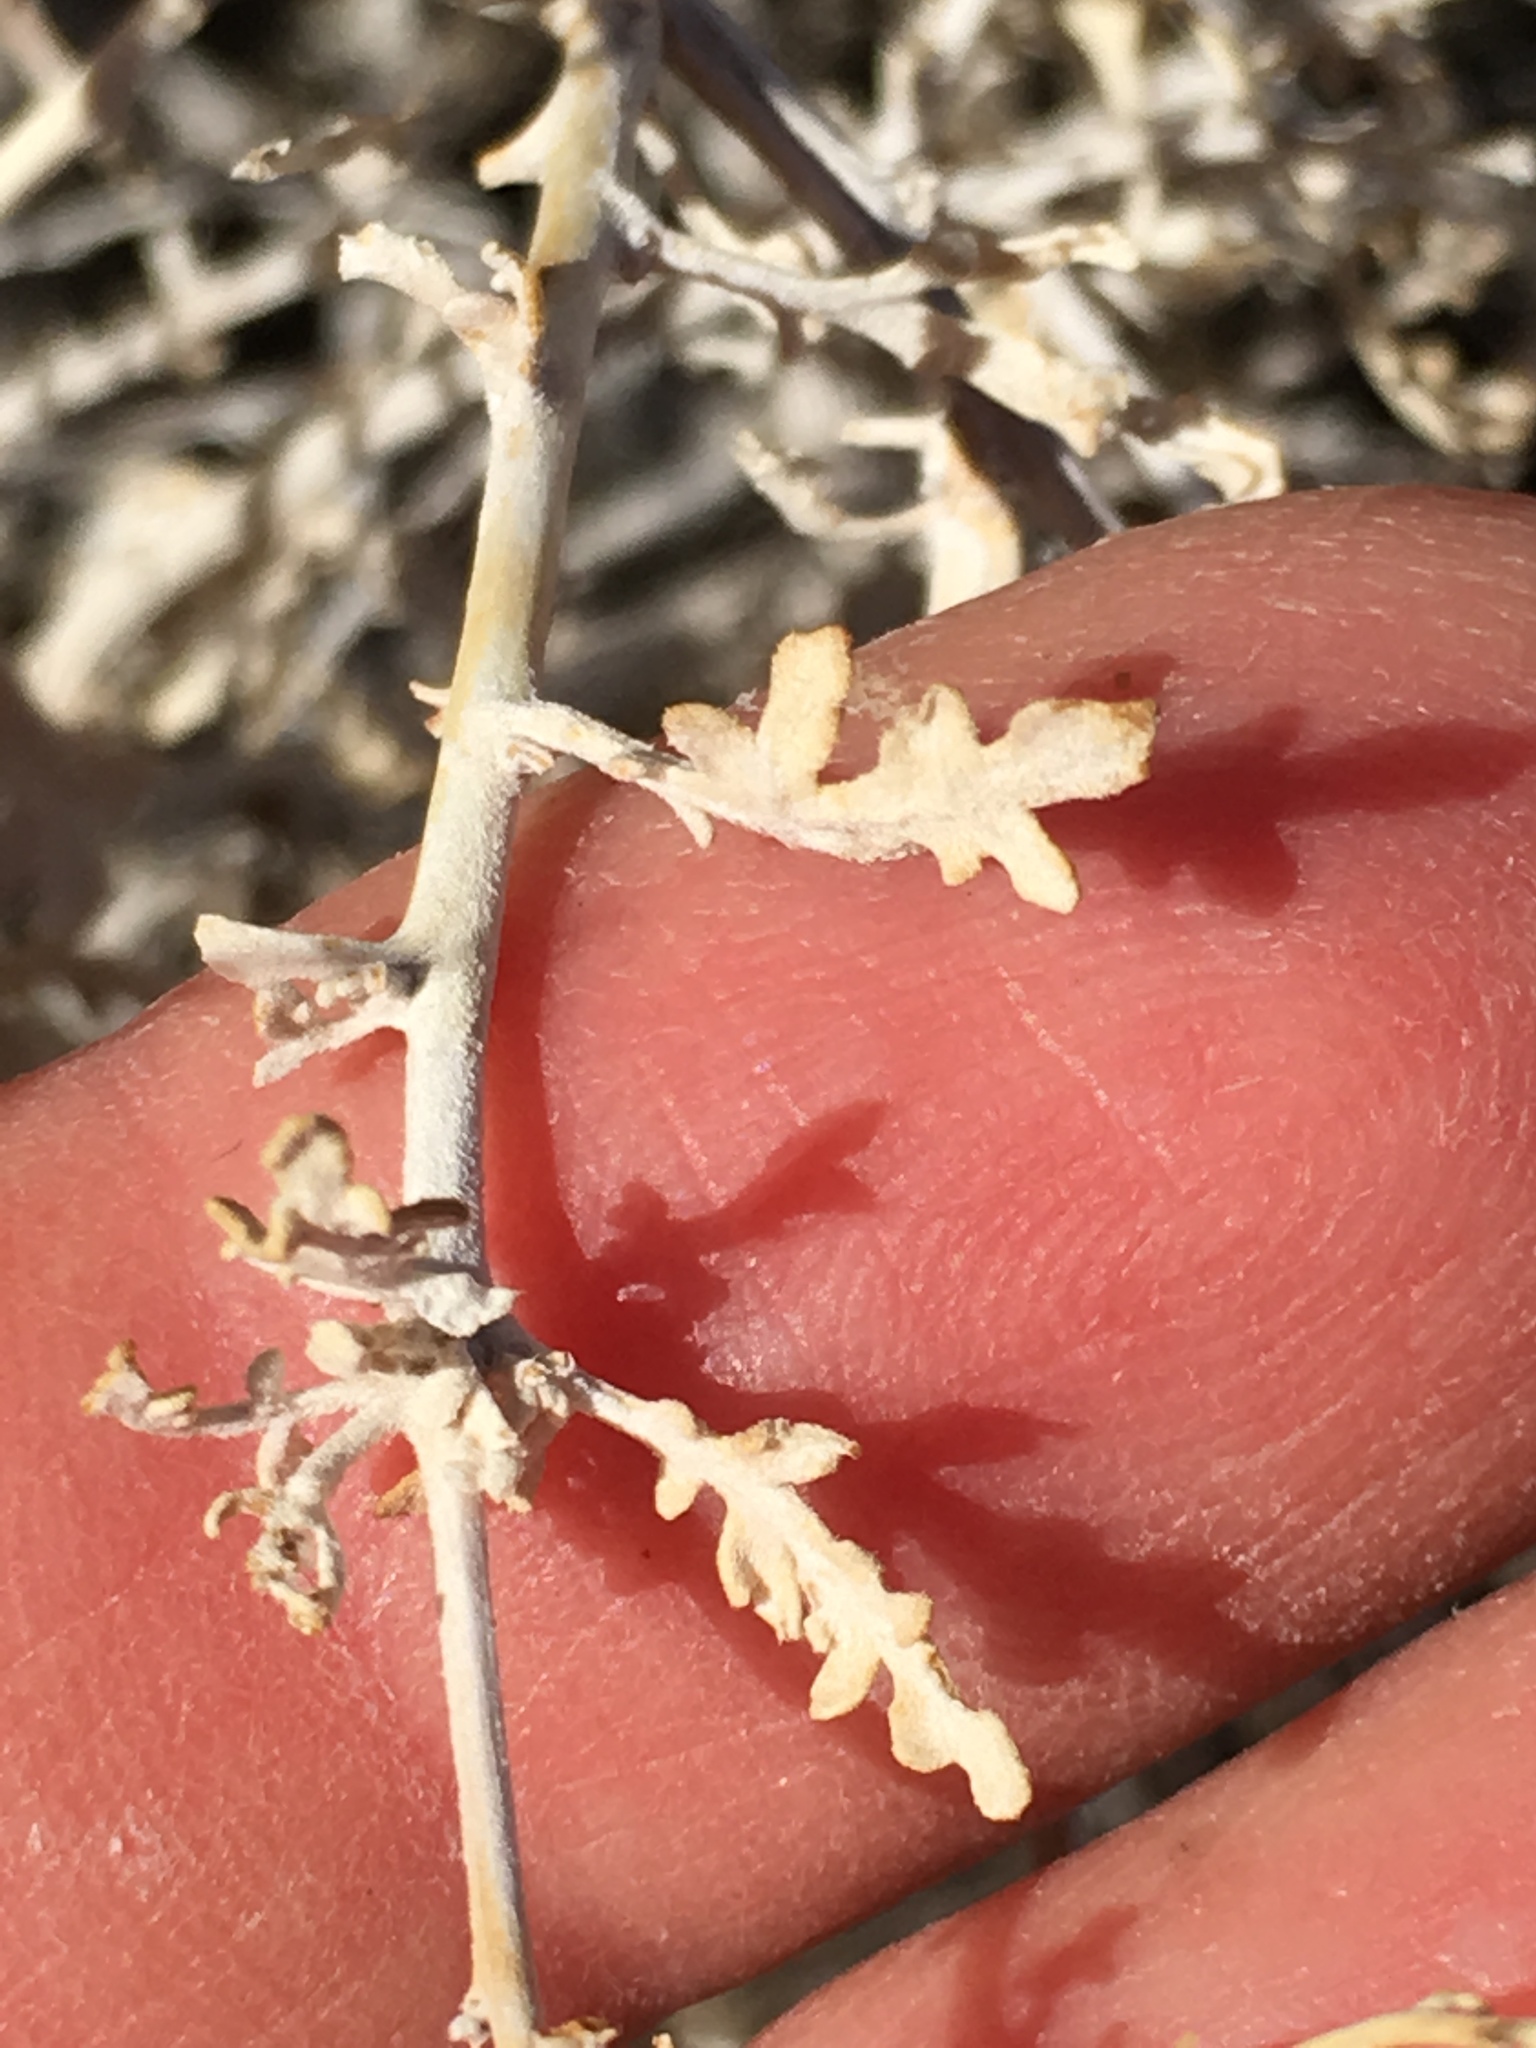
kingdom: Plantae
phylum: Tracheophyta
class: Magnoliopsida
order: Asterales
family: Asteraceae
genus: Ambrosia
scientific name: Ambrosia dumosa
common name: Bur-sage
